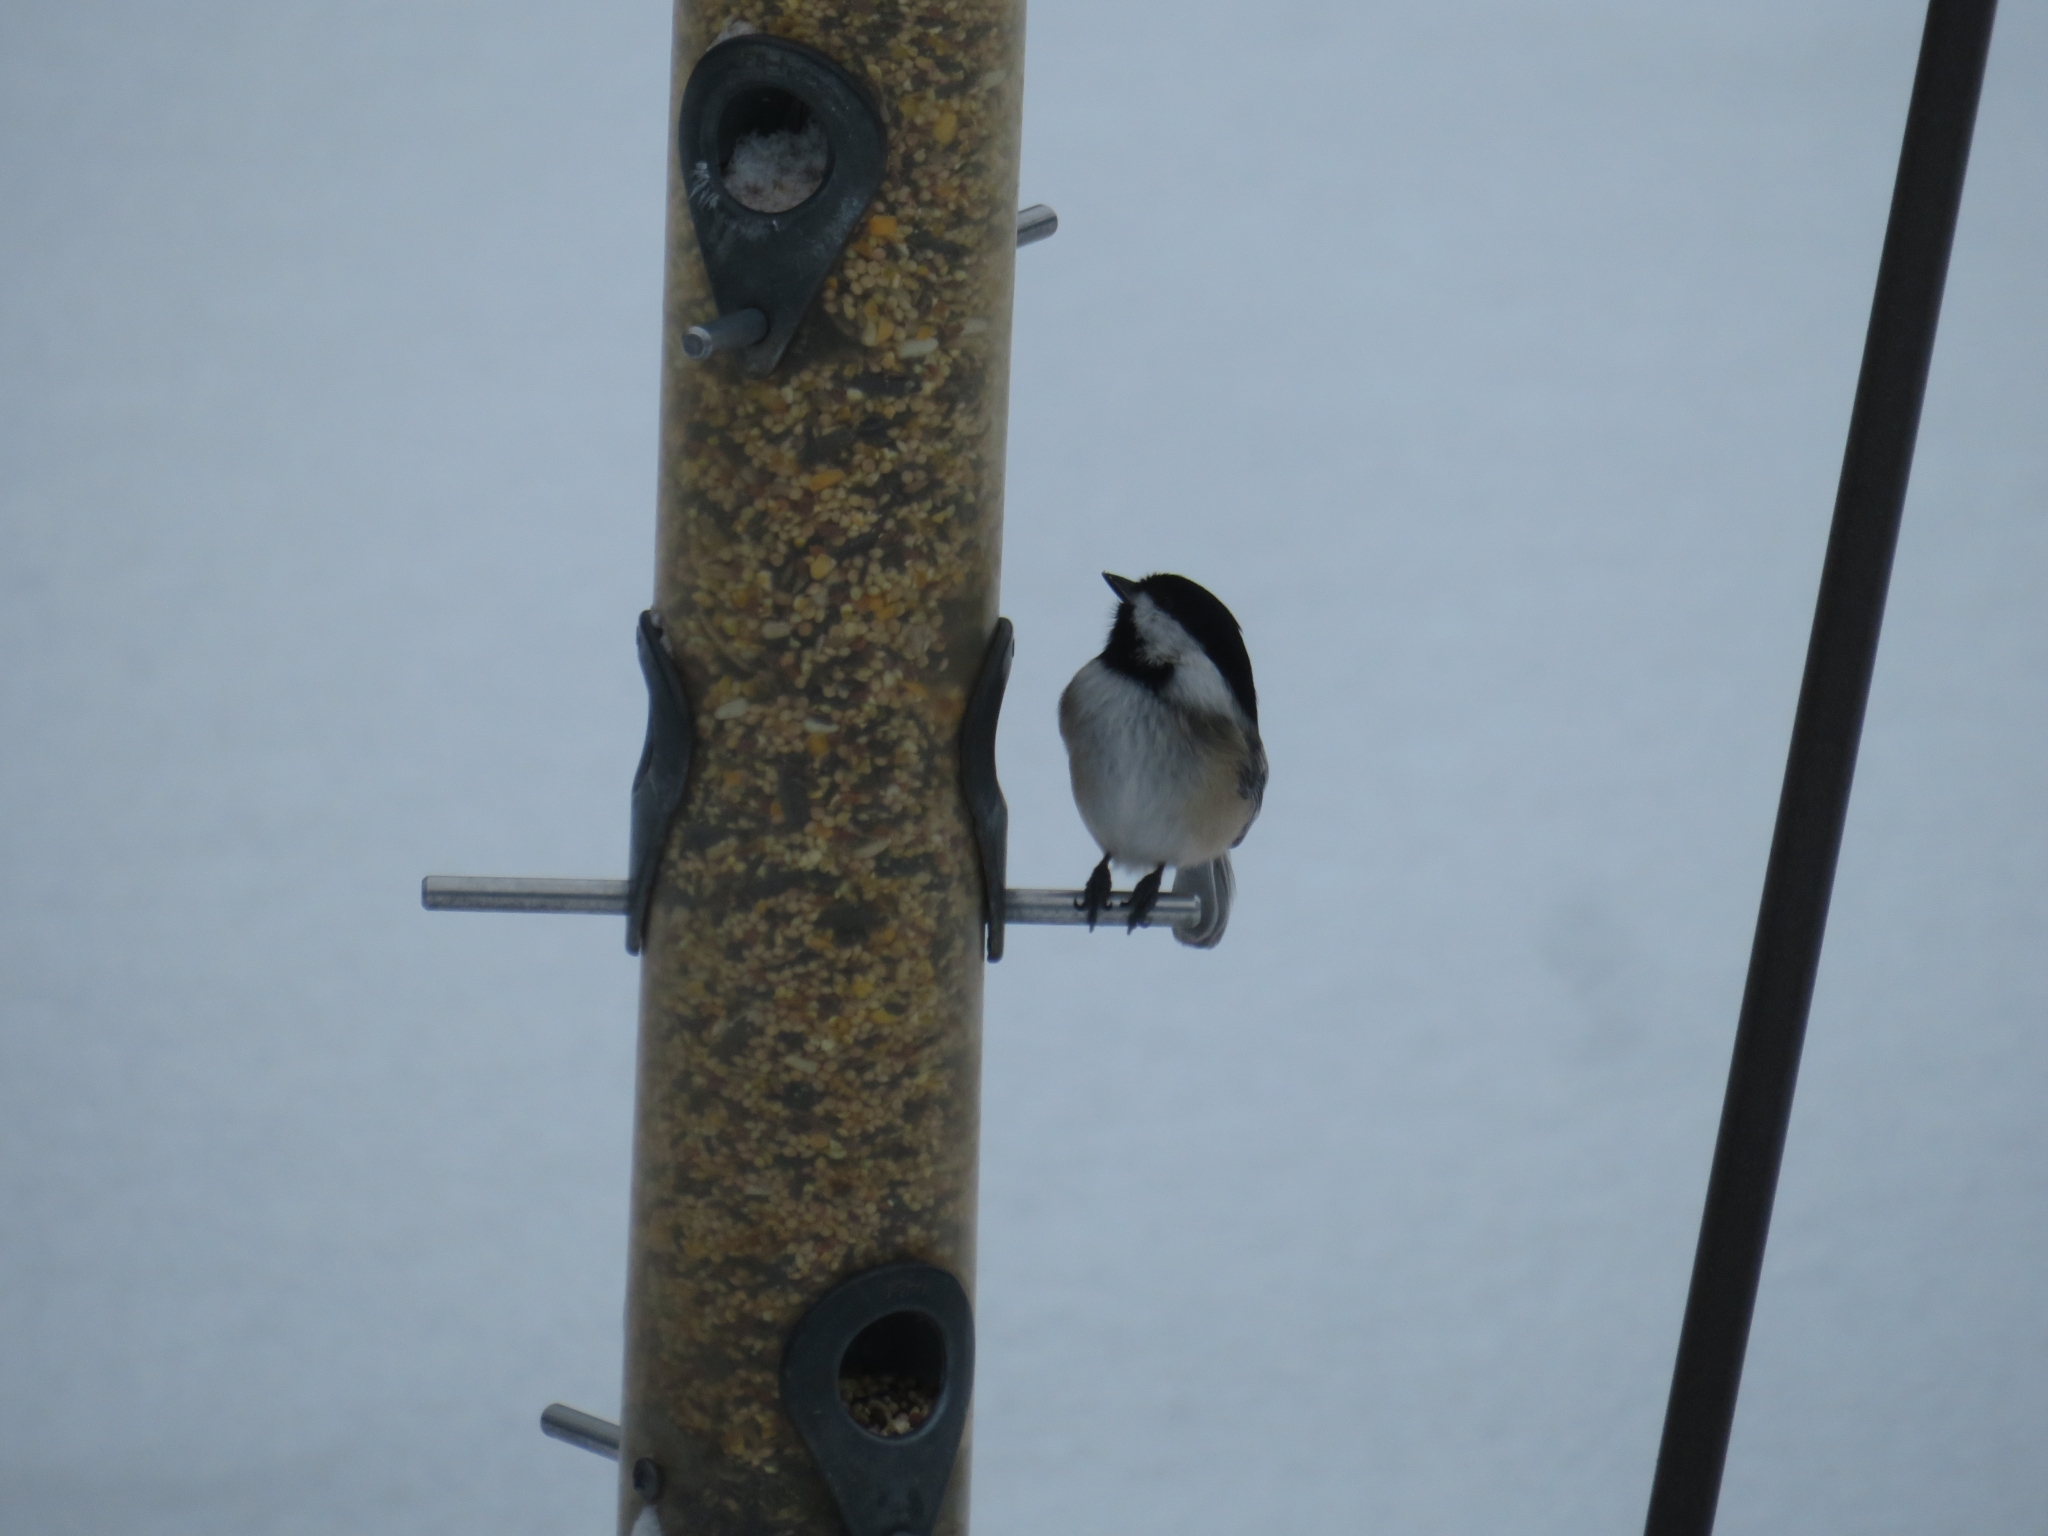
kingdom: Animalia
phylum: Chordata
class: Aves
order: Passeriformes
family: Paridae
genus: Poecile
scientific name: Poecile atricapillus
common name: Black-capped chickadee
